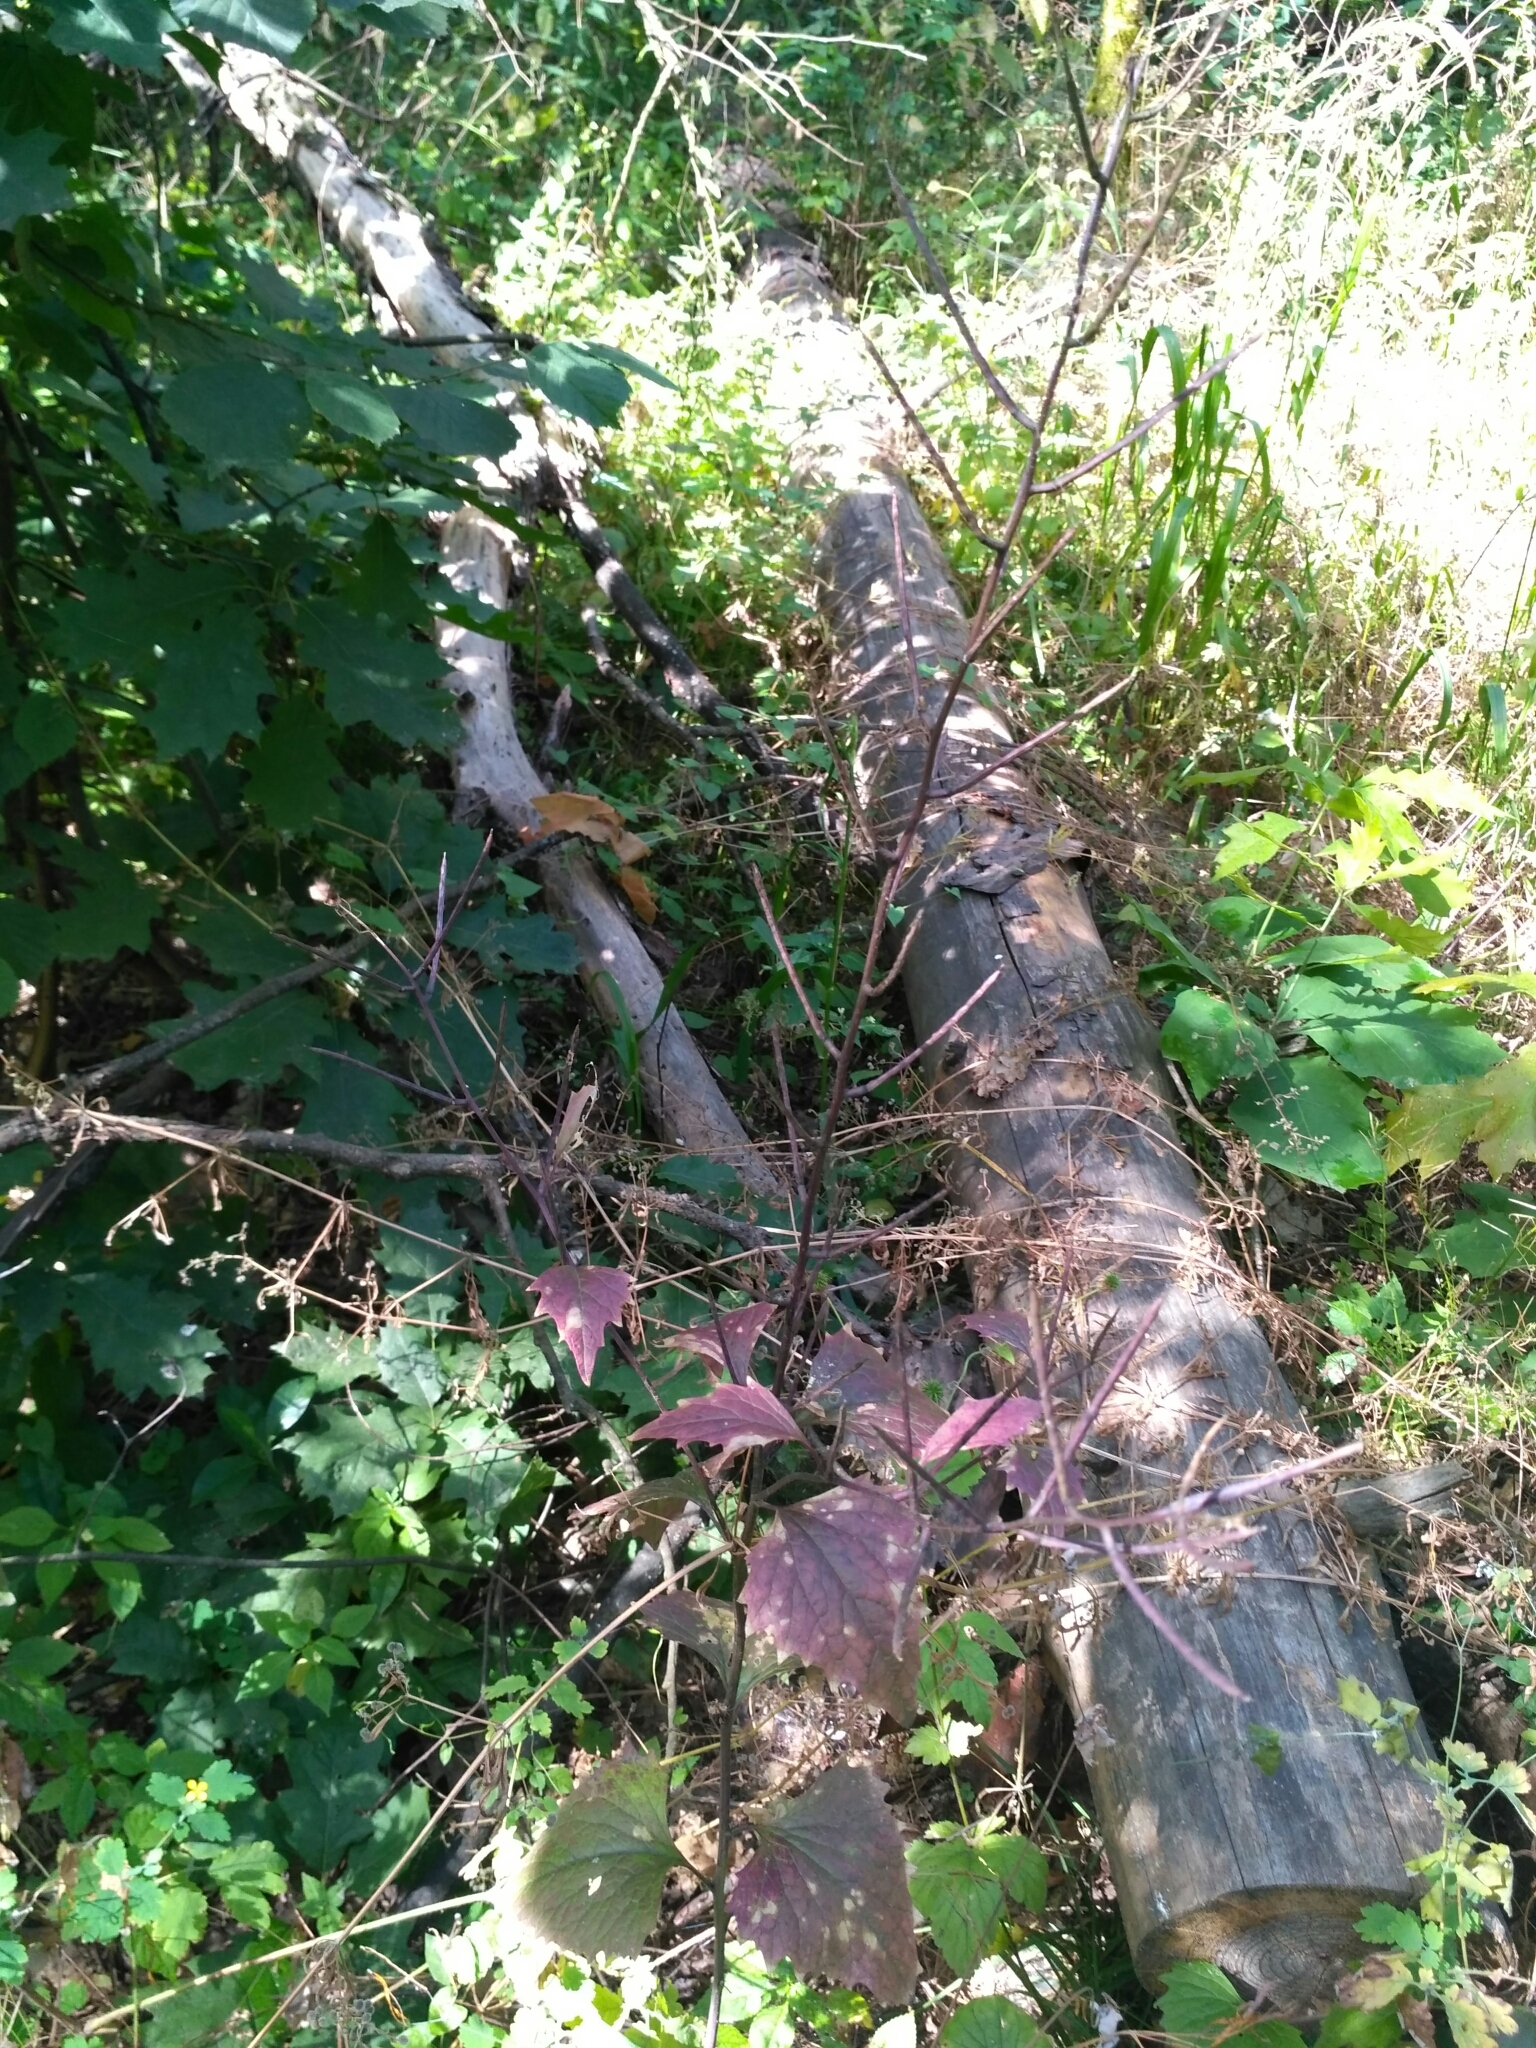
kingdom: Plantae
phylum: Tracheophyta
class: Magnoliopsida
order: Brassicales
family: Brassicaceae
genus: Alliaria
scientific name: Alliaria petiolata
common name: Garlic mustard
